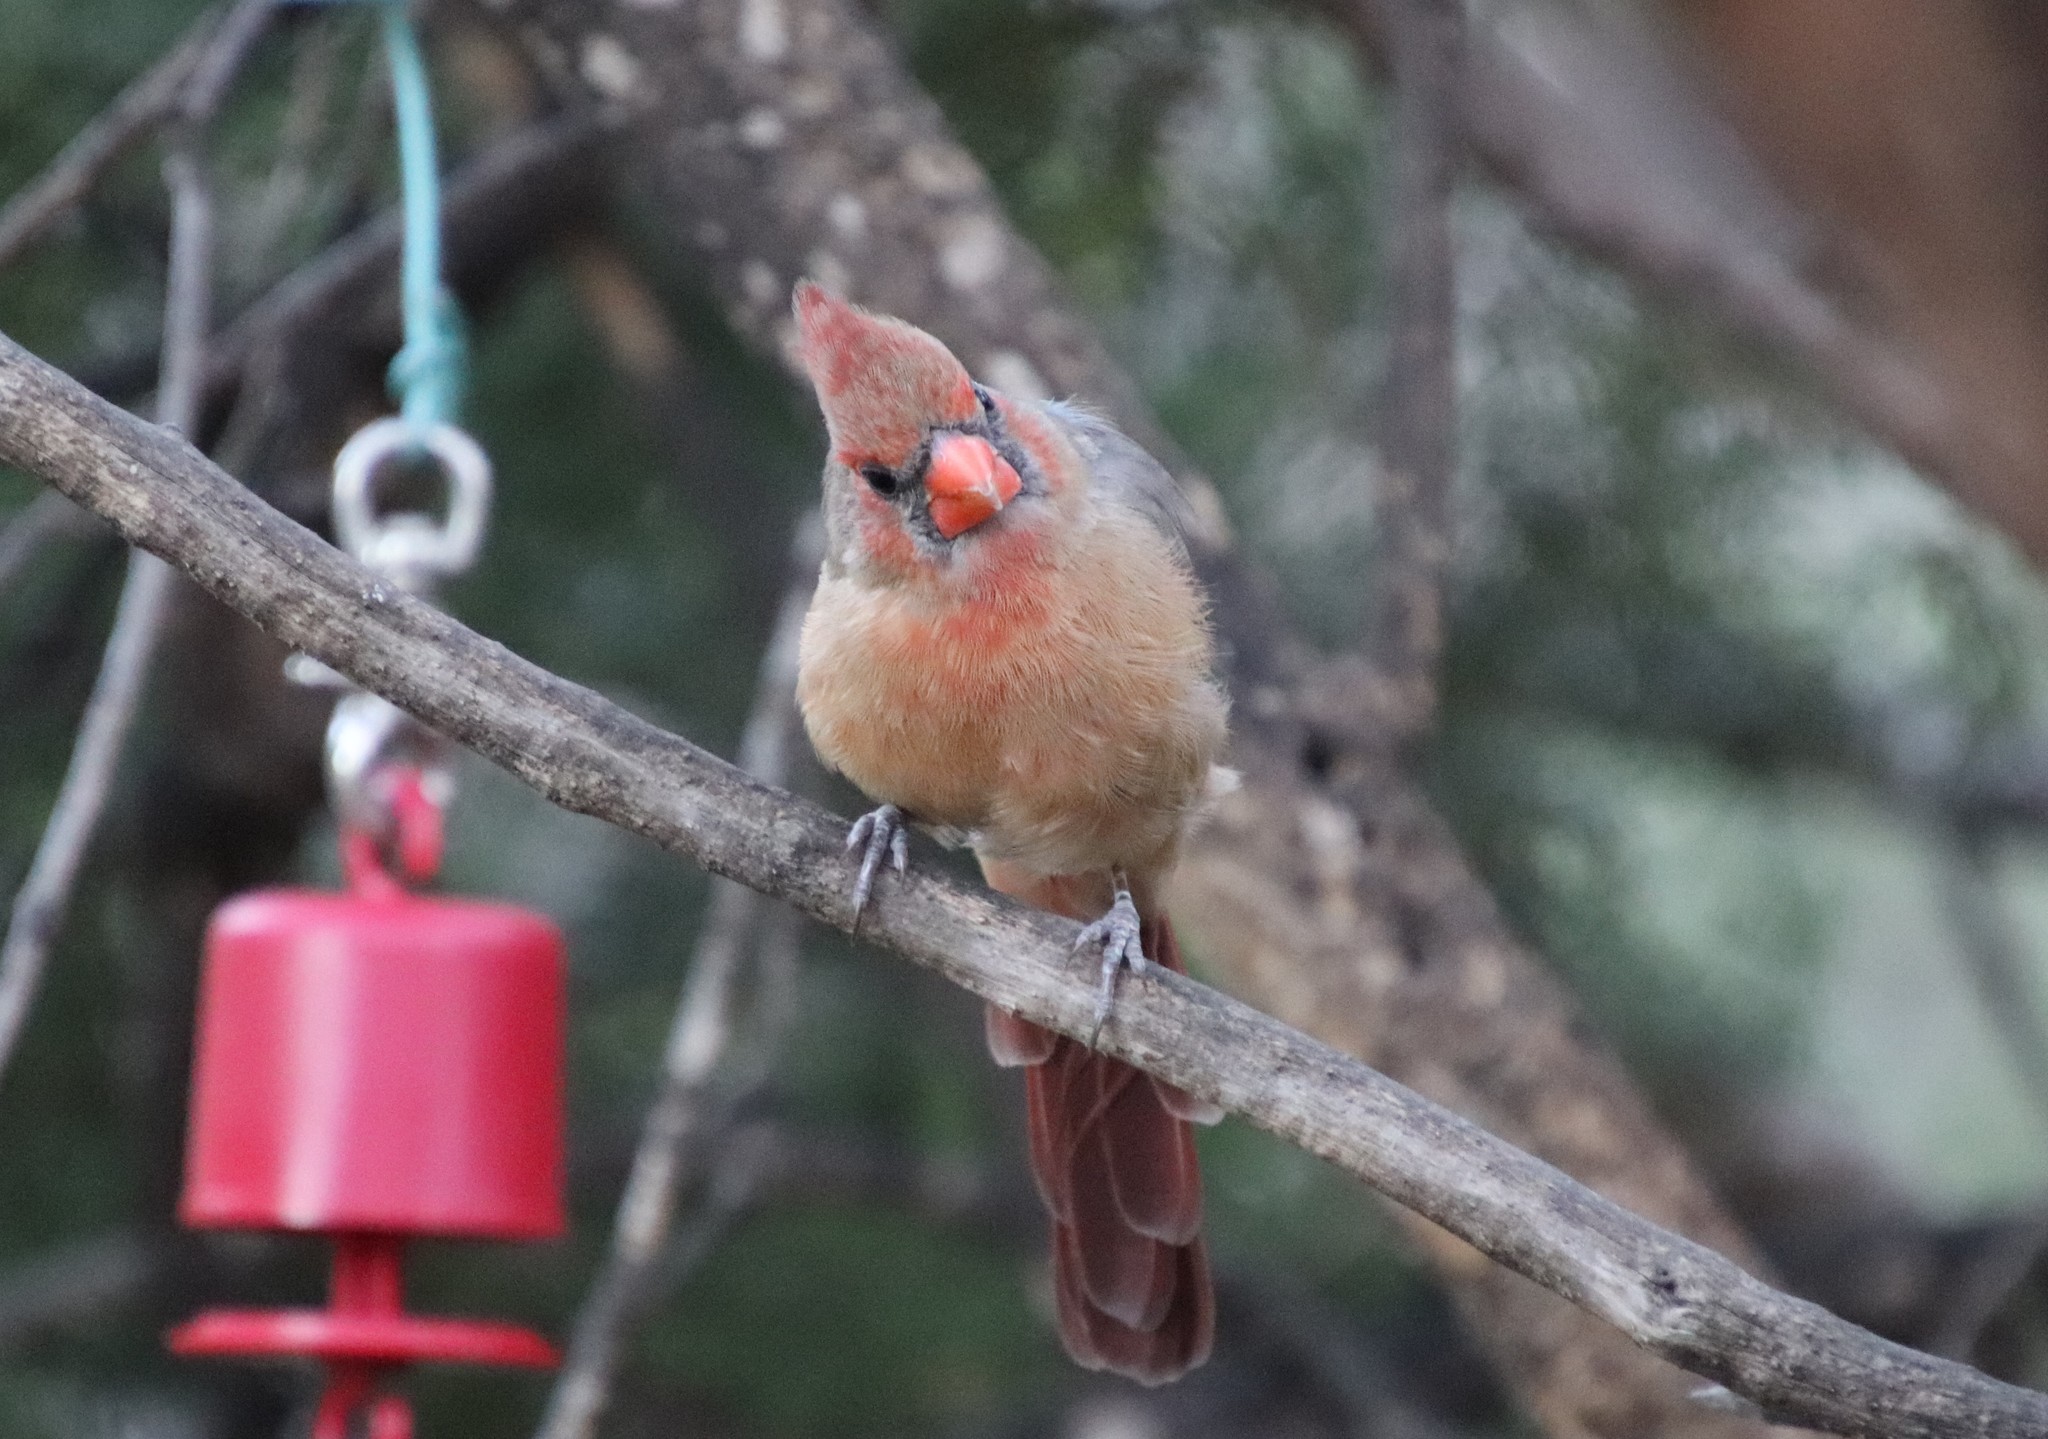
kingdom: Animalia
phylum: Chordata
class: Aves
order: Passeriformes
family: Cardinalidae
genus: Cardinalis
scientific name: Cardinalis cardinalis
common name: Northern cardinal
